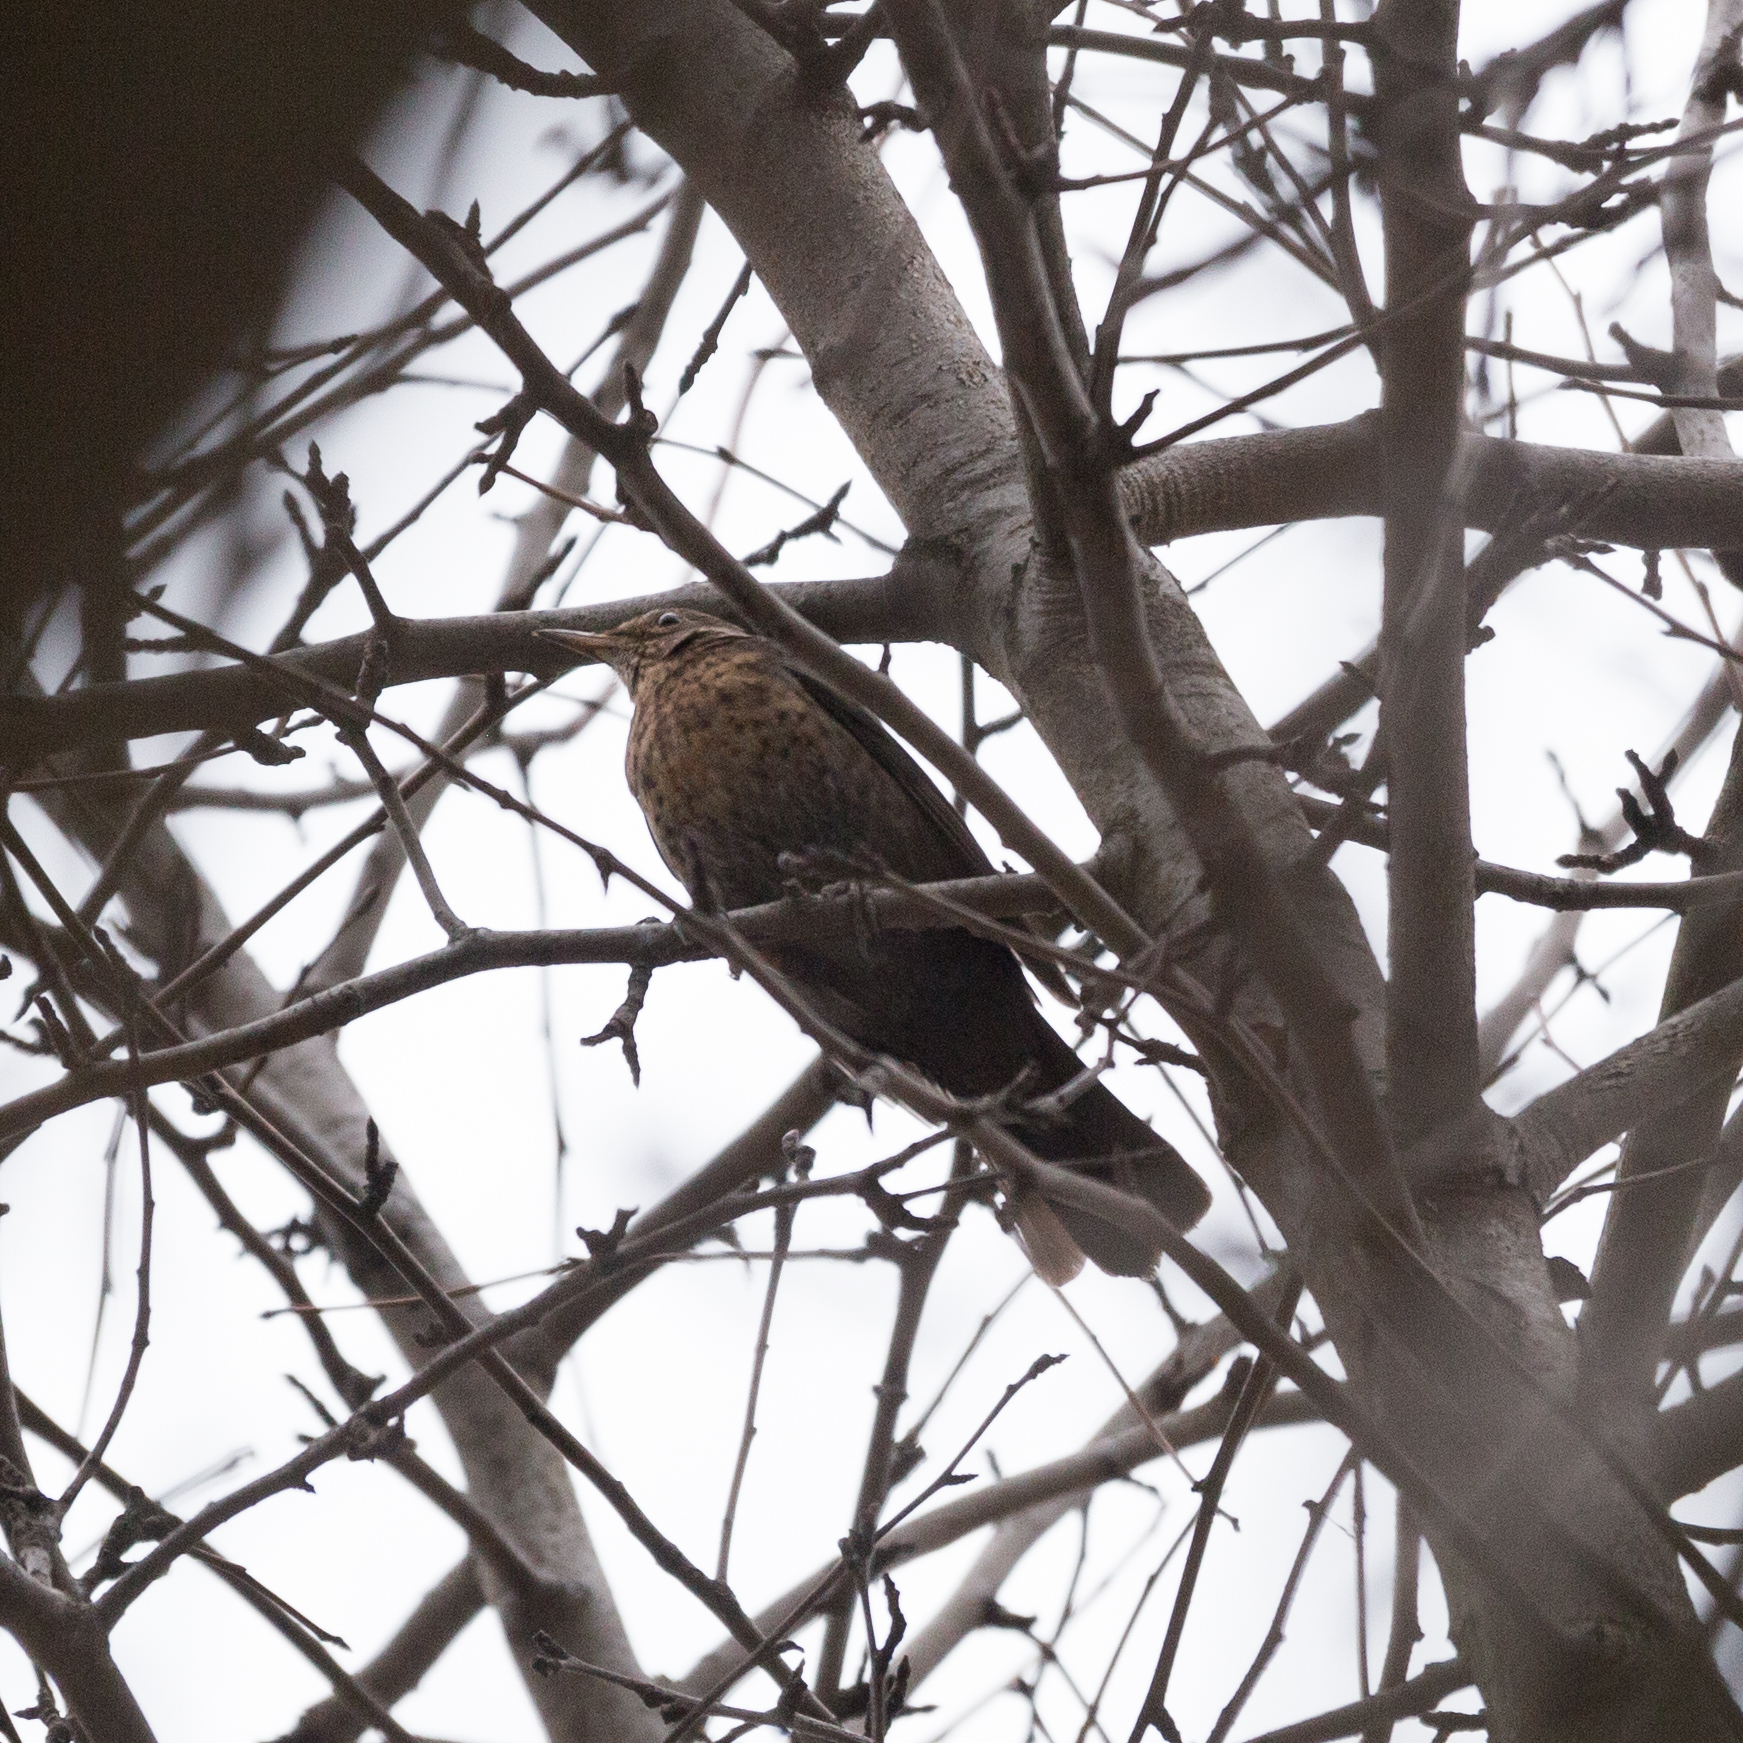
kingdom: Animalia
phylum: Chordata
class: Aves
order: Passeriformes
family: Turdidae
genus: Turdus
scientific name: Turdus merula
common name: Common blackbird
